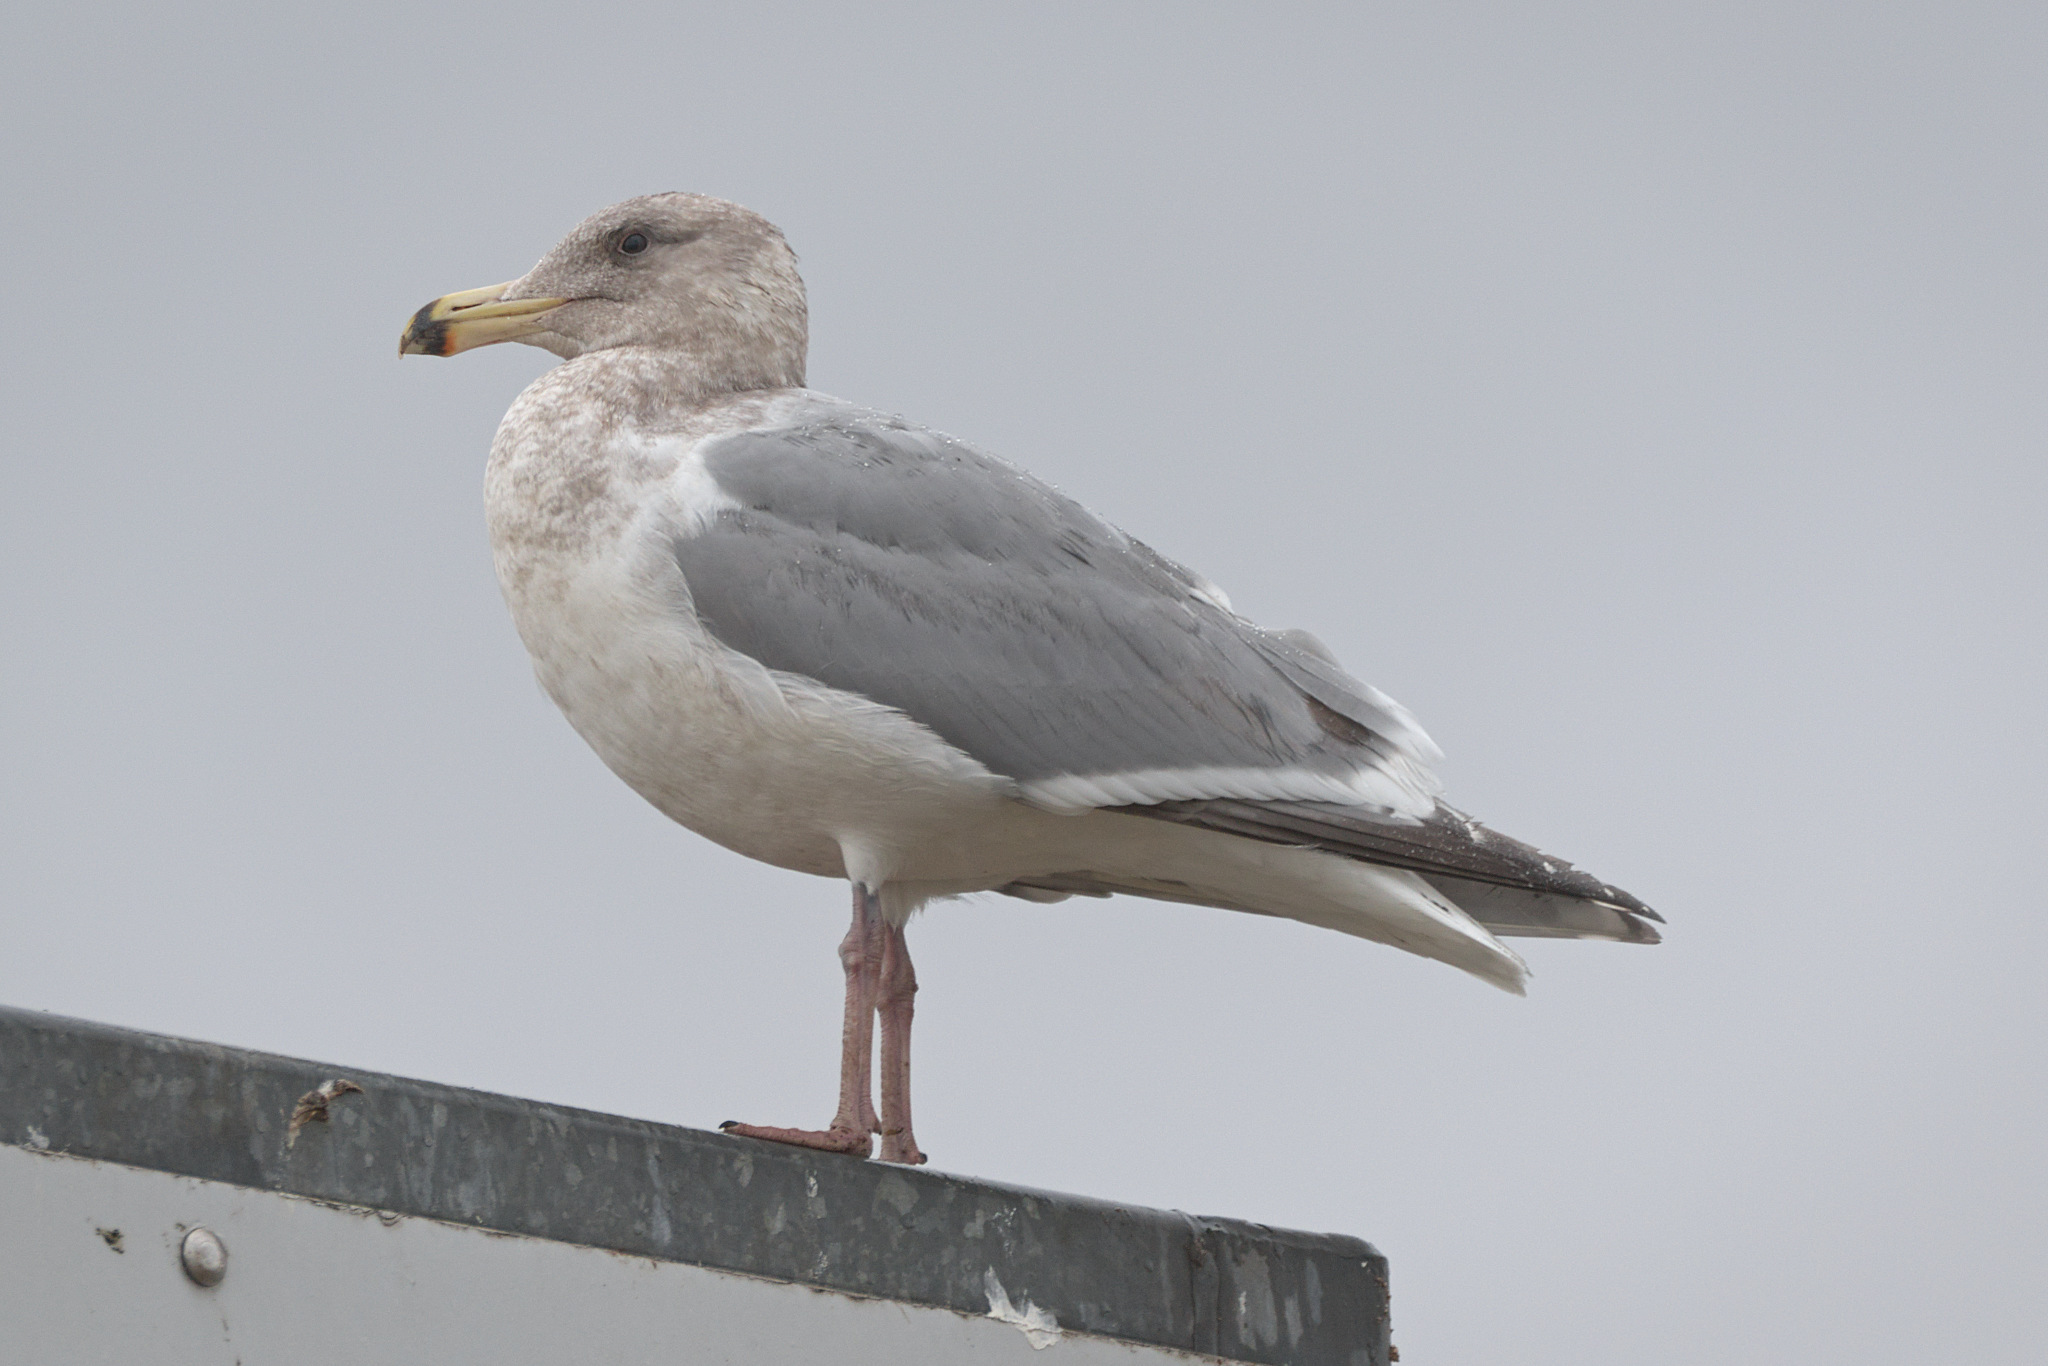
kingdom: Animalia
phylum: Chordata
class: Aves
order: Charadriiformes
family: Laridae
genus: Larus
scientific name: Larus
